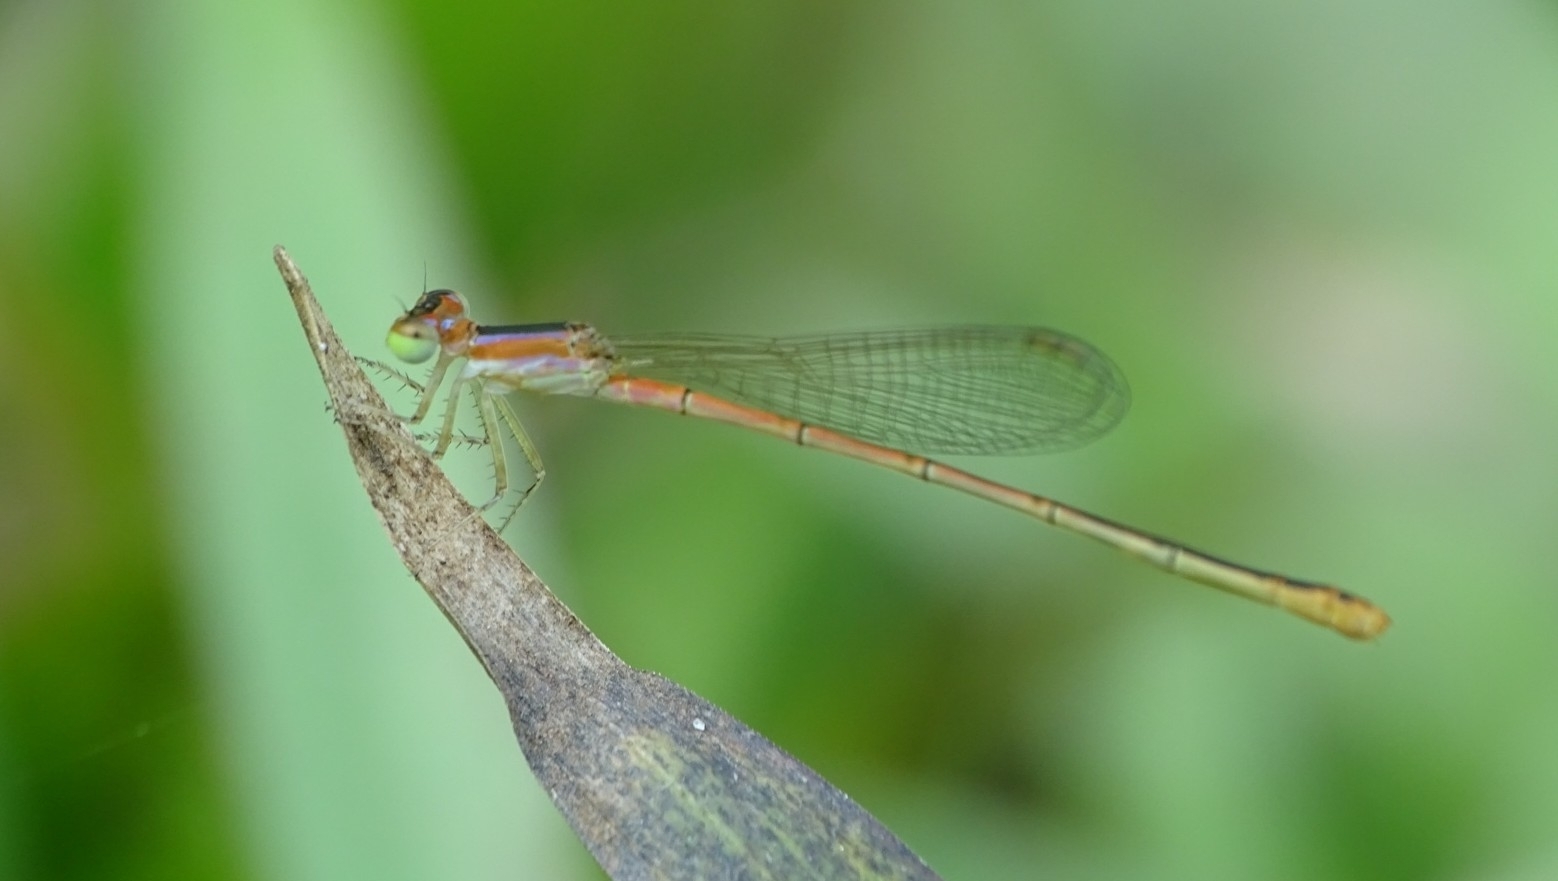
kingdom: Animalia
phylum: Arthropoda
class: Insecta
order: Odonata
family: Coenagrionidae
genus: Agriocnemis
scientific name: Agriocnemis pygmaea
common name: Pygmy wisp
